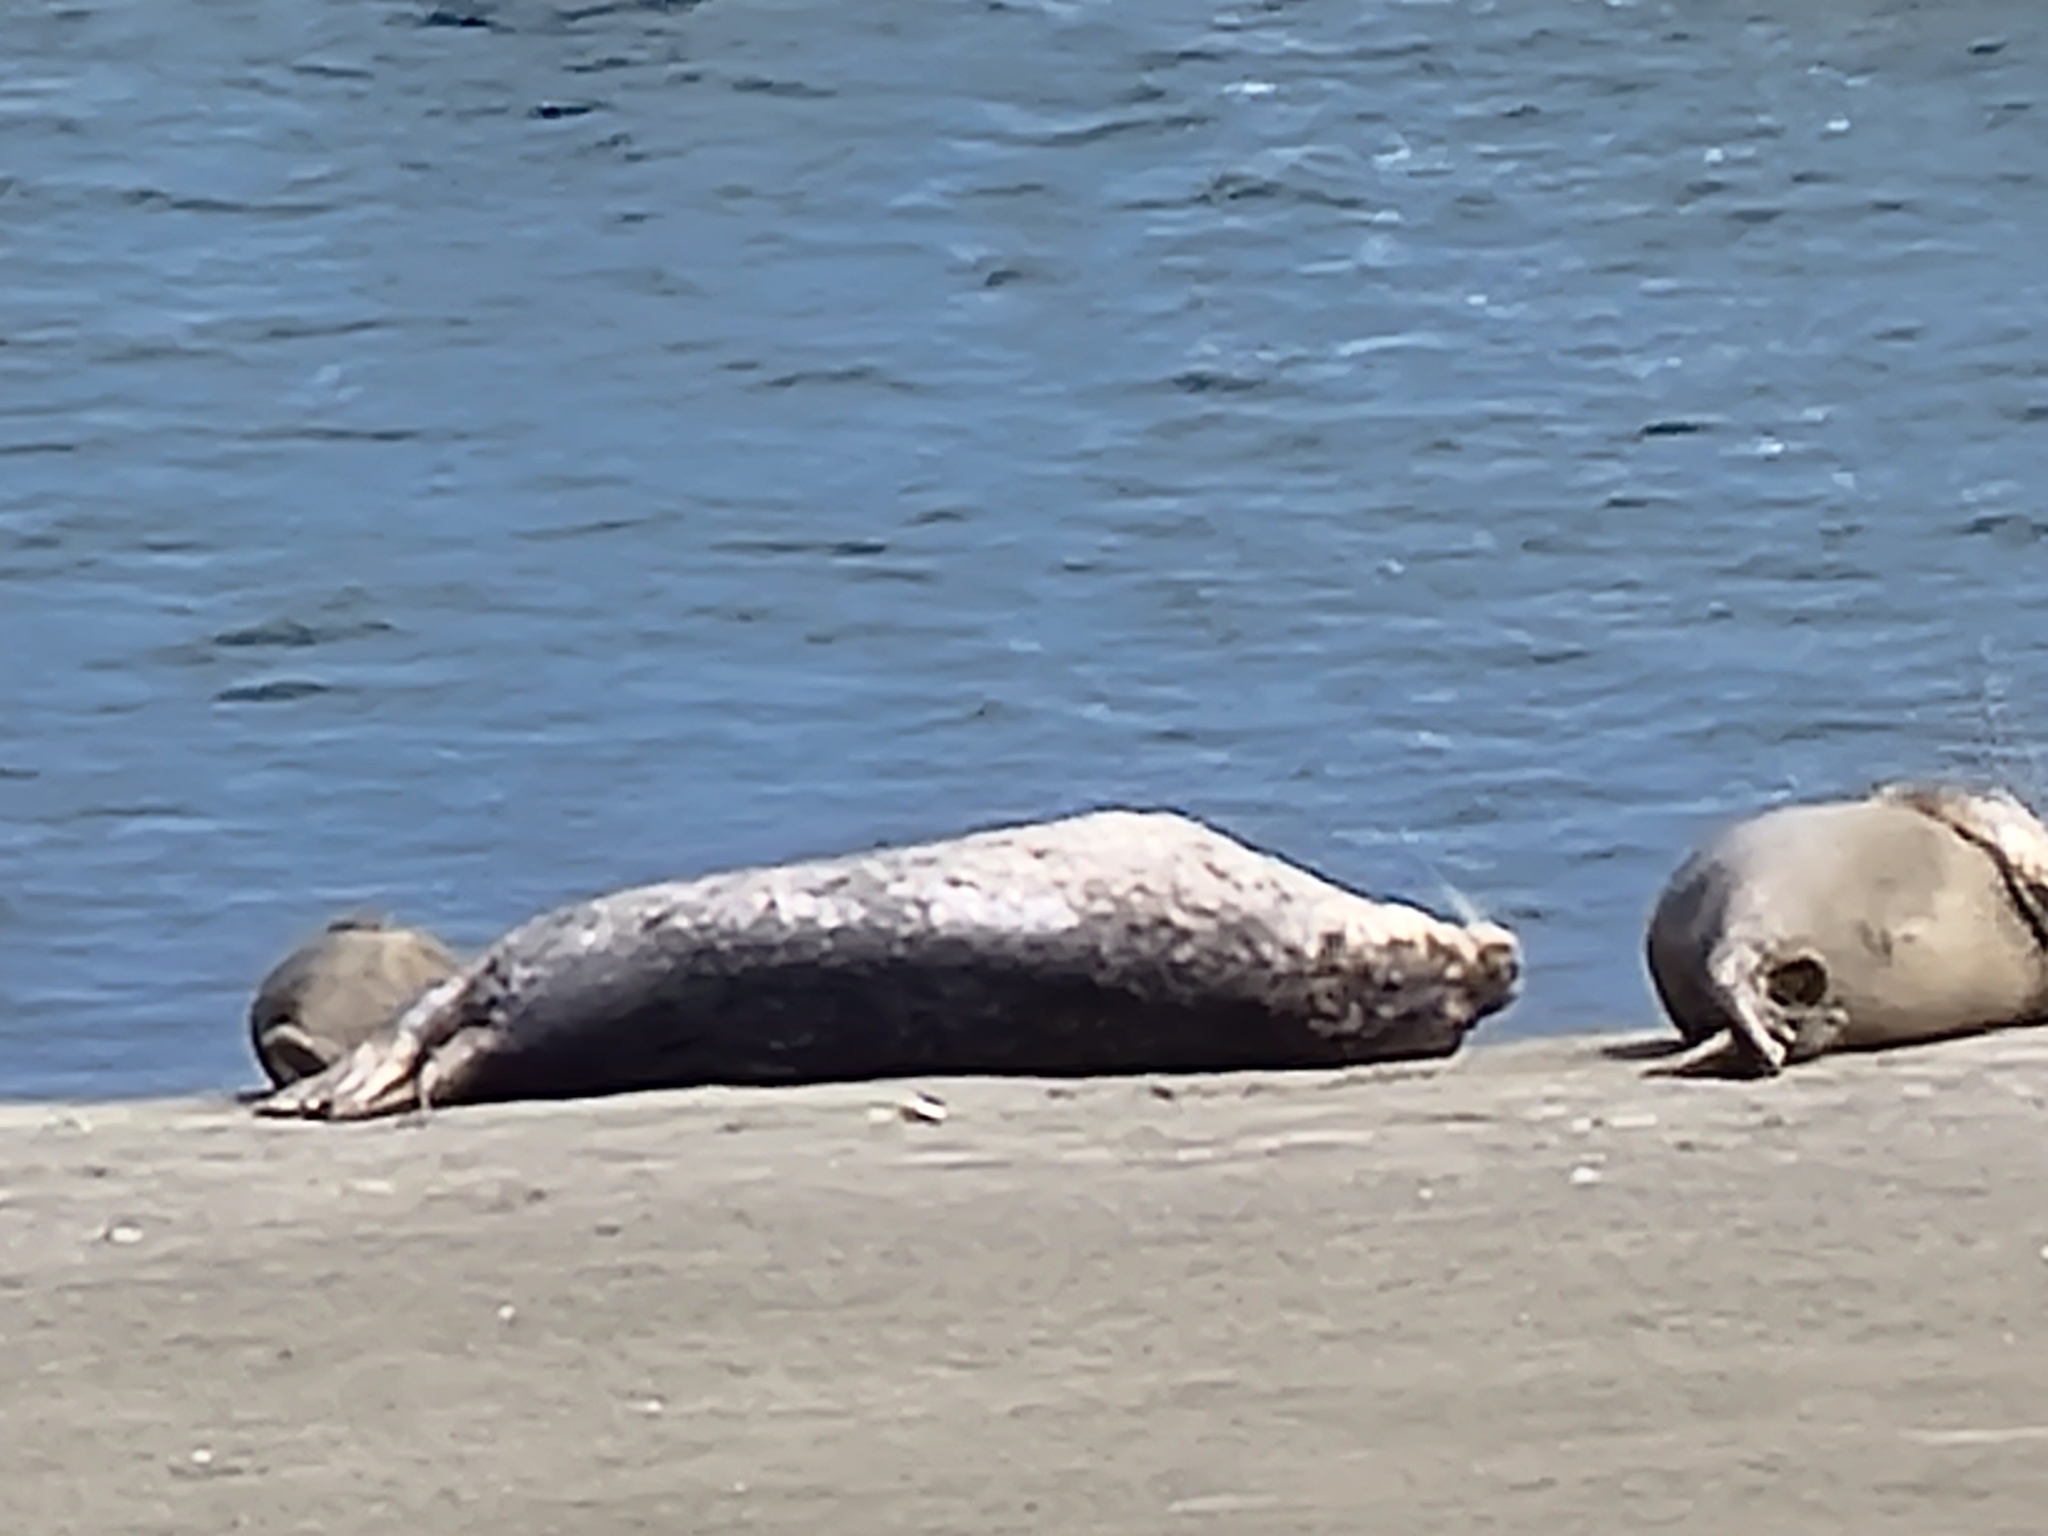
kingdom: Animalia
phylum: Chordata
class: Mammalia
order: Carnivora
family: Phocidae
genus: Phoca
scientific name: Phoca vitulina
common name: Harbor seal
